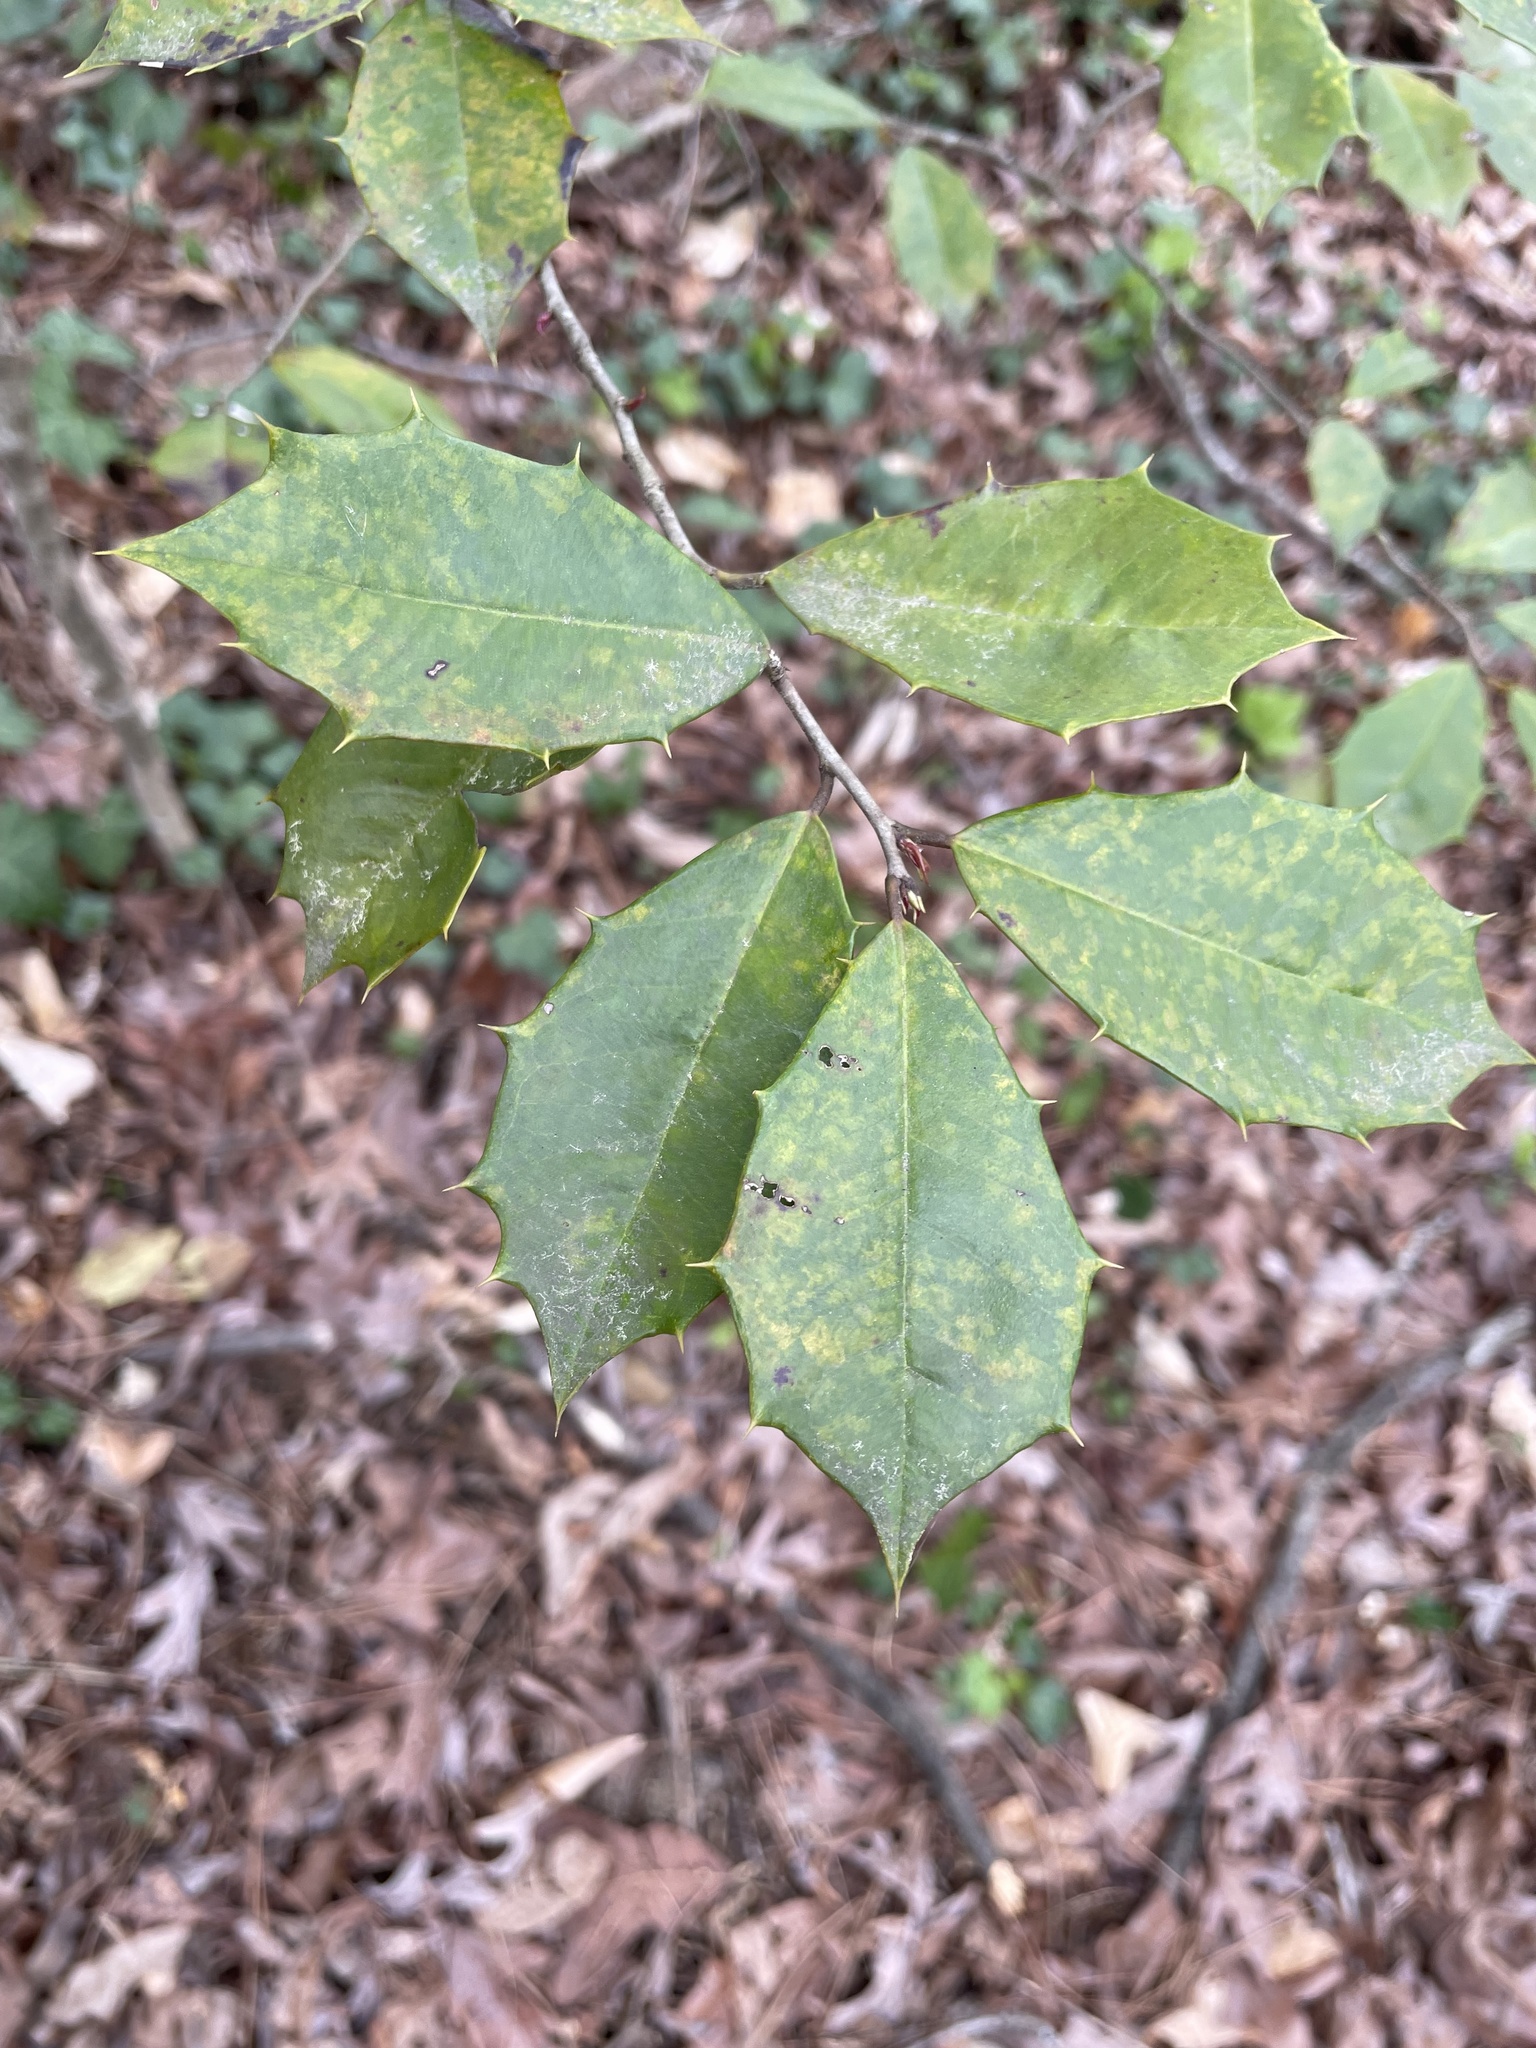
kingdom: Plantae
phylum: Tracheophyta
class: Magnoliopsida
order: Aquifoliales
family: Aquifoliaceae
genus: Ilex
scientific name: Ilex opaca
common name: American holly
